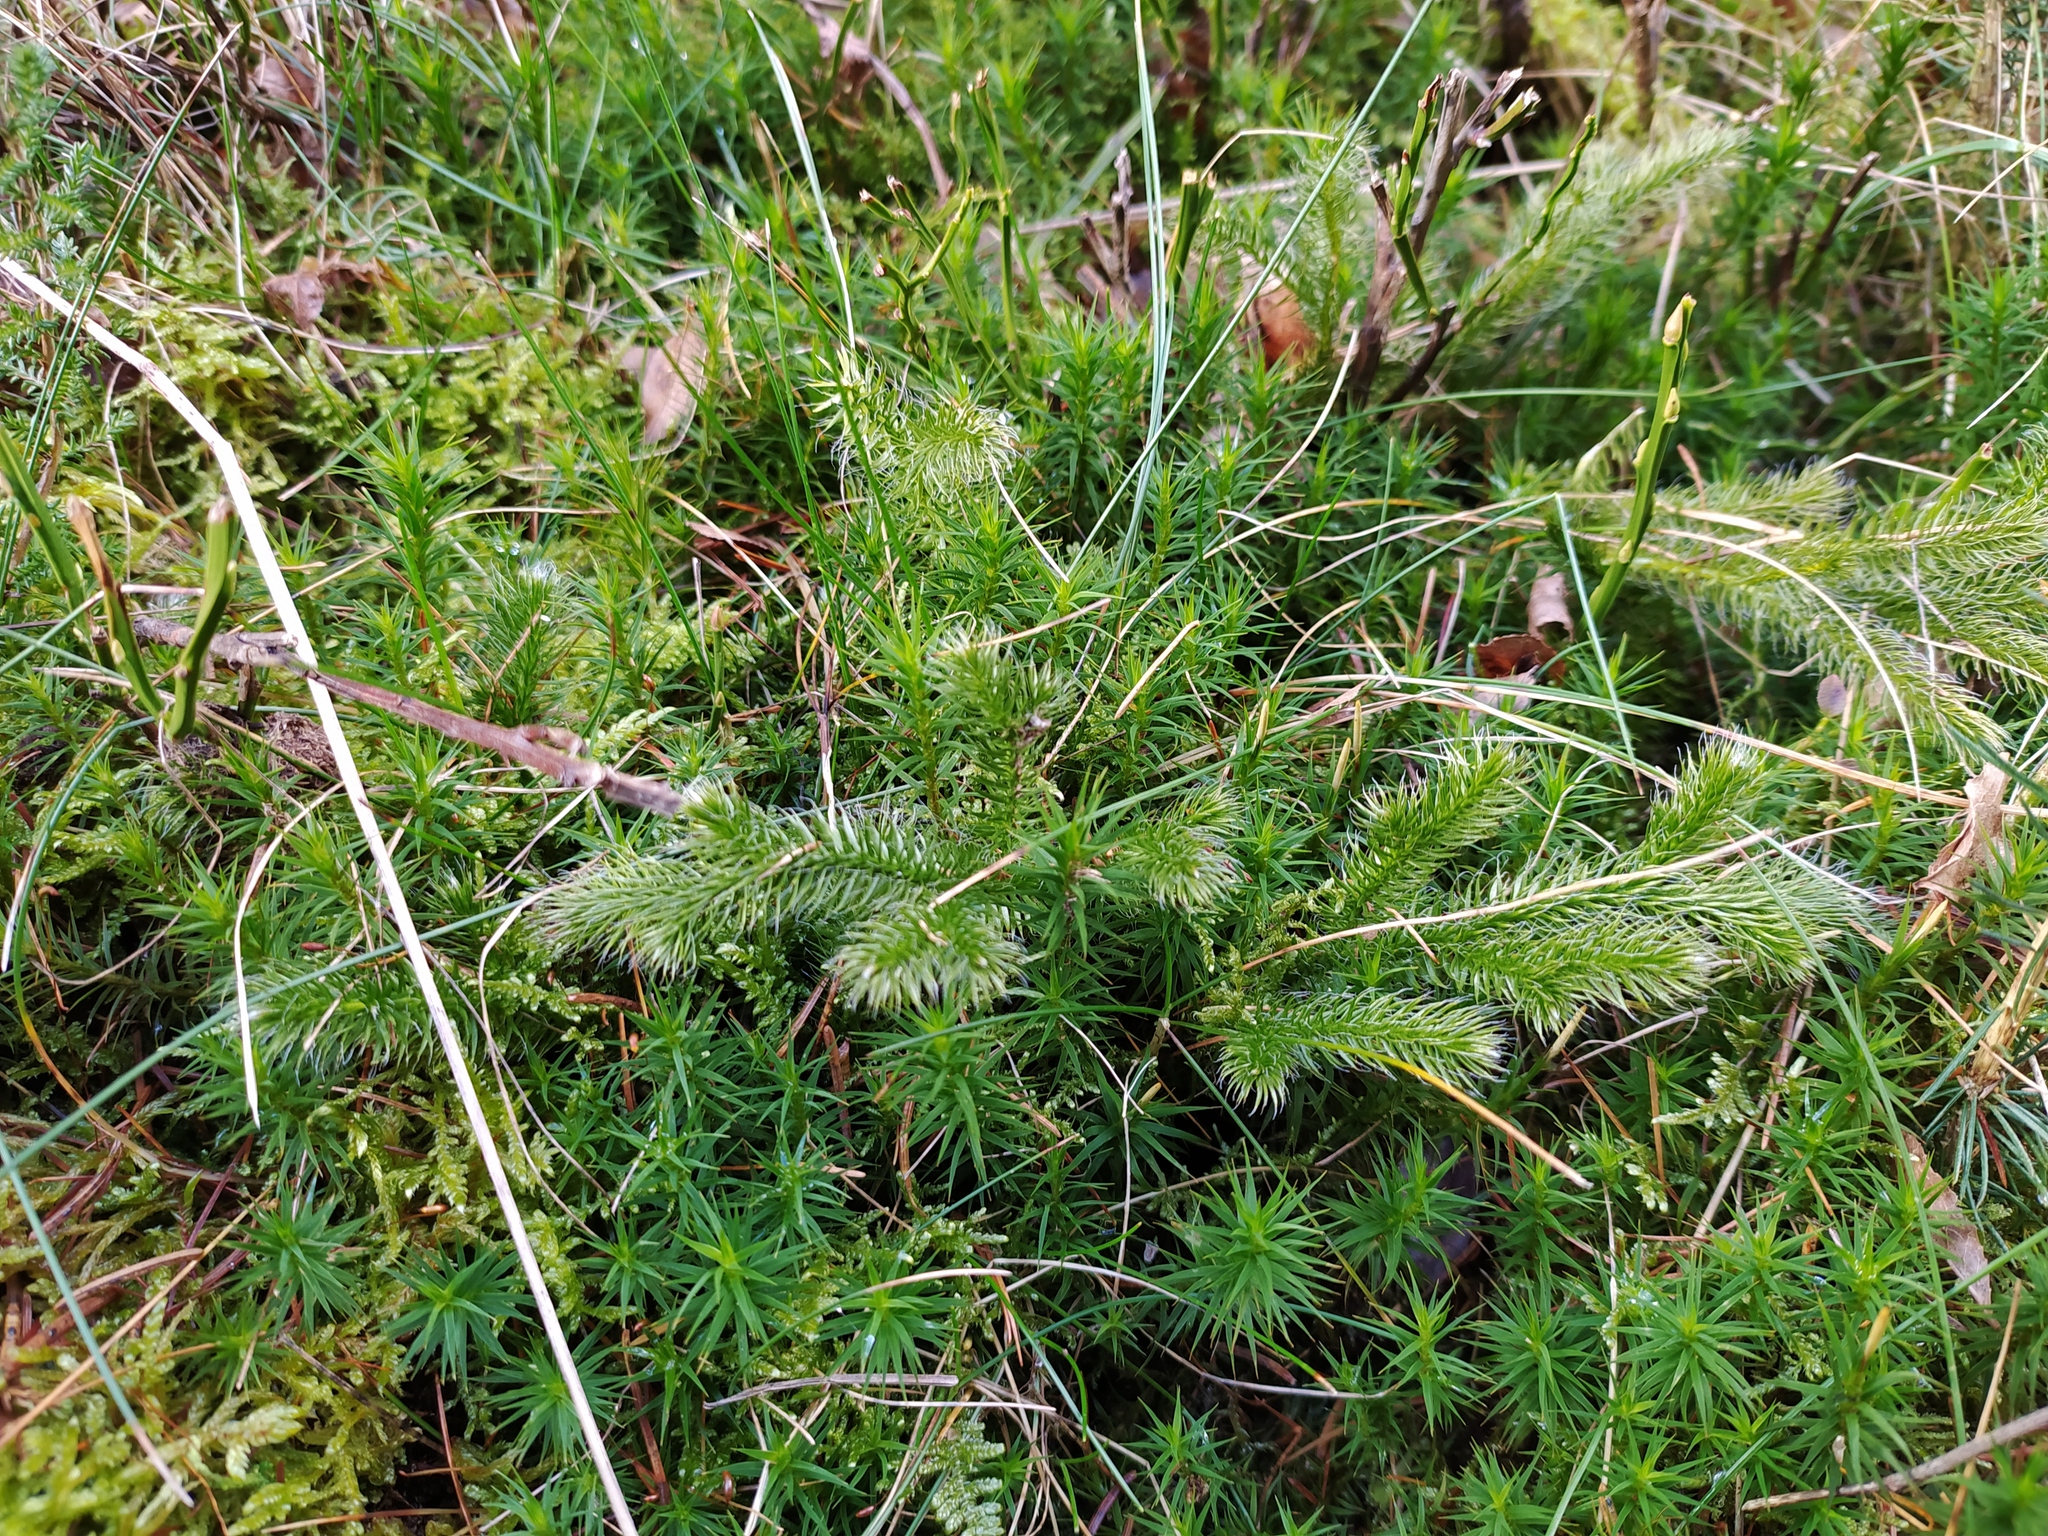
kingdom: Plantae
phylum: Tracheophyta
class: Lycopodiopsida
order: Lycopodiales
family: Lycopodiaceae
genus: Lycopodium
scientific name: Lycopodium clavatum
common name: Stag's-horn clubmoss
